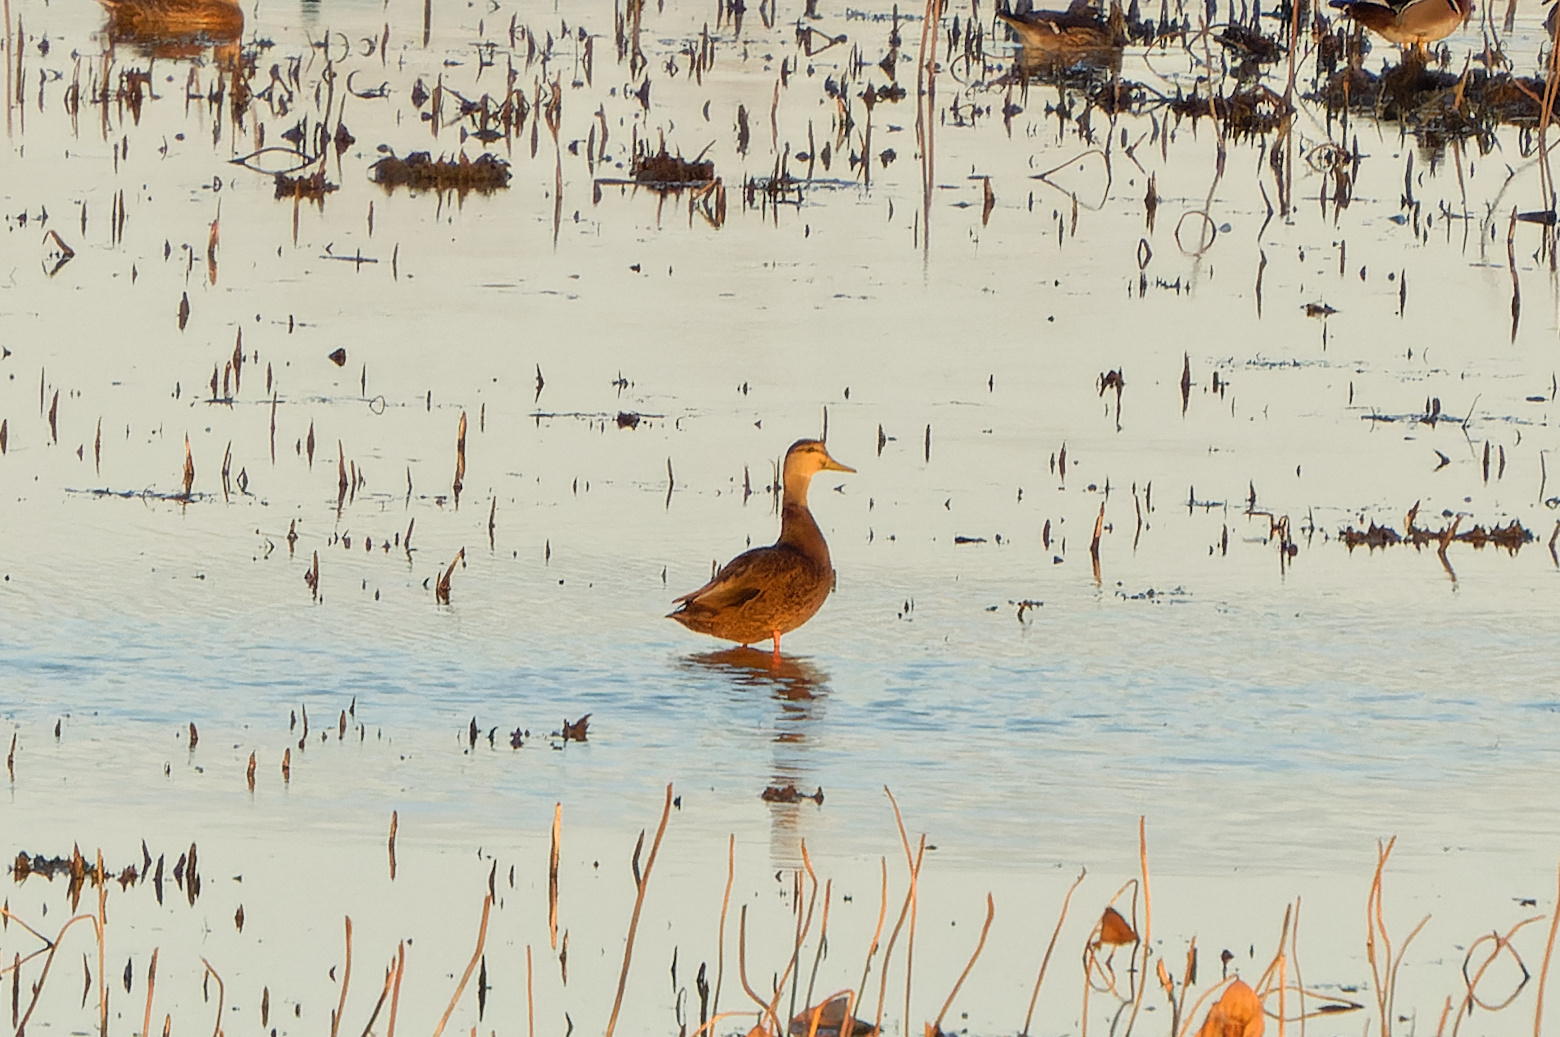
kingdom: Animalia
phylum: Chordata
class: Aves
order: Anseriformes
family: Anatidae
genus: Anas
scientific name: Anas rubripes
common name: American black duck
